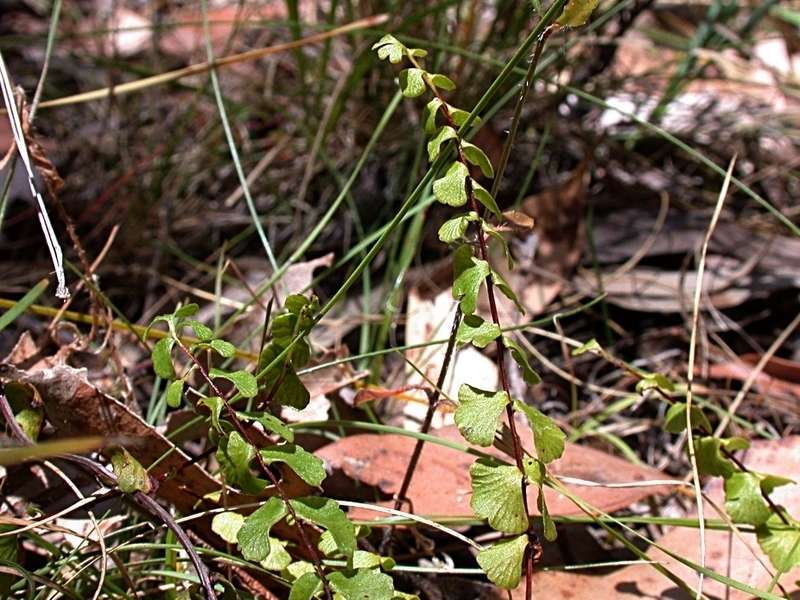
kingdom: Plantae
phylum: Tracheophyta
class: Polypodiopsida
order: Polypodiales
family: Lindsaeaceae
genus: Lindsaea
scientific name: Lindsaea linearis
